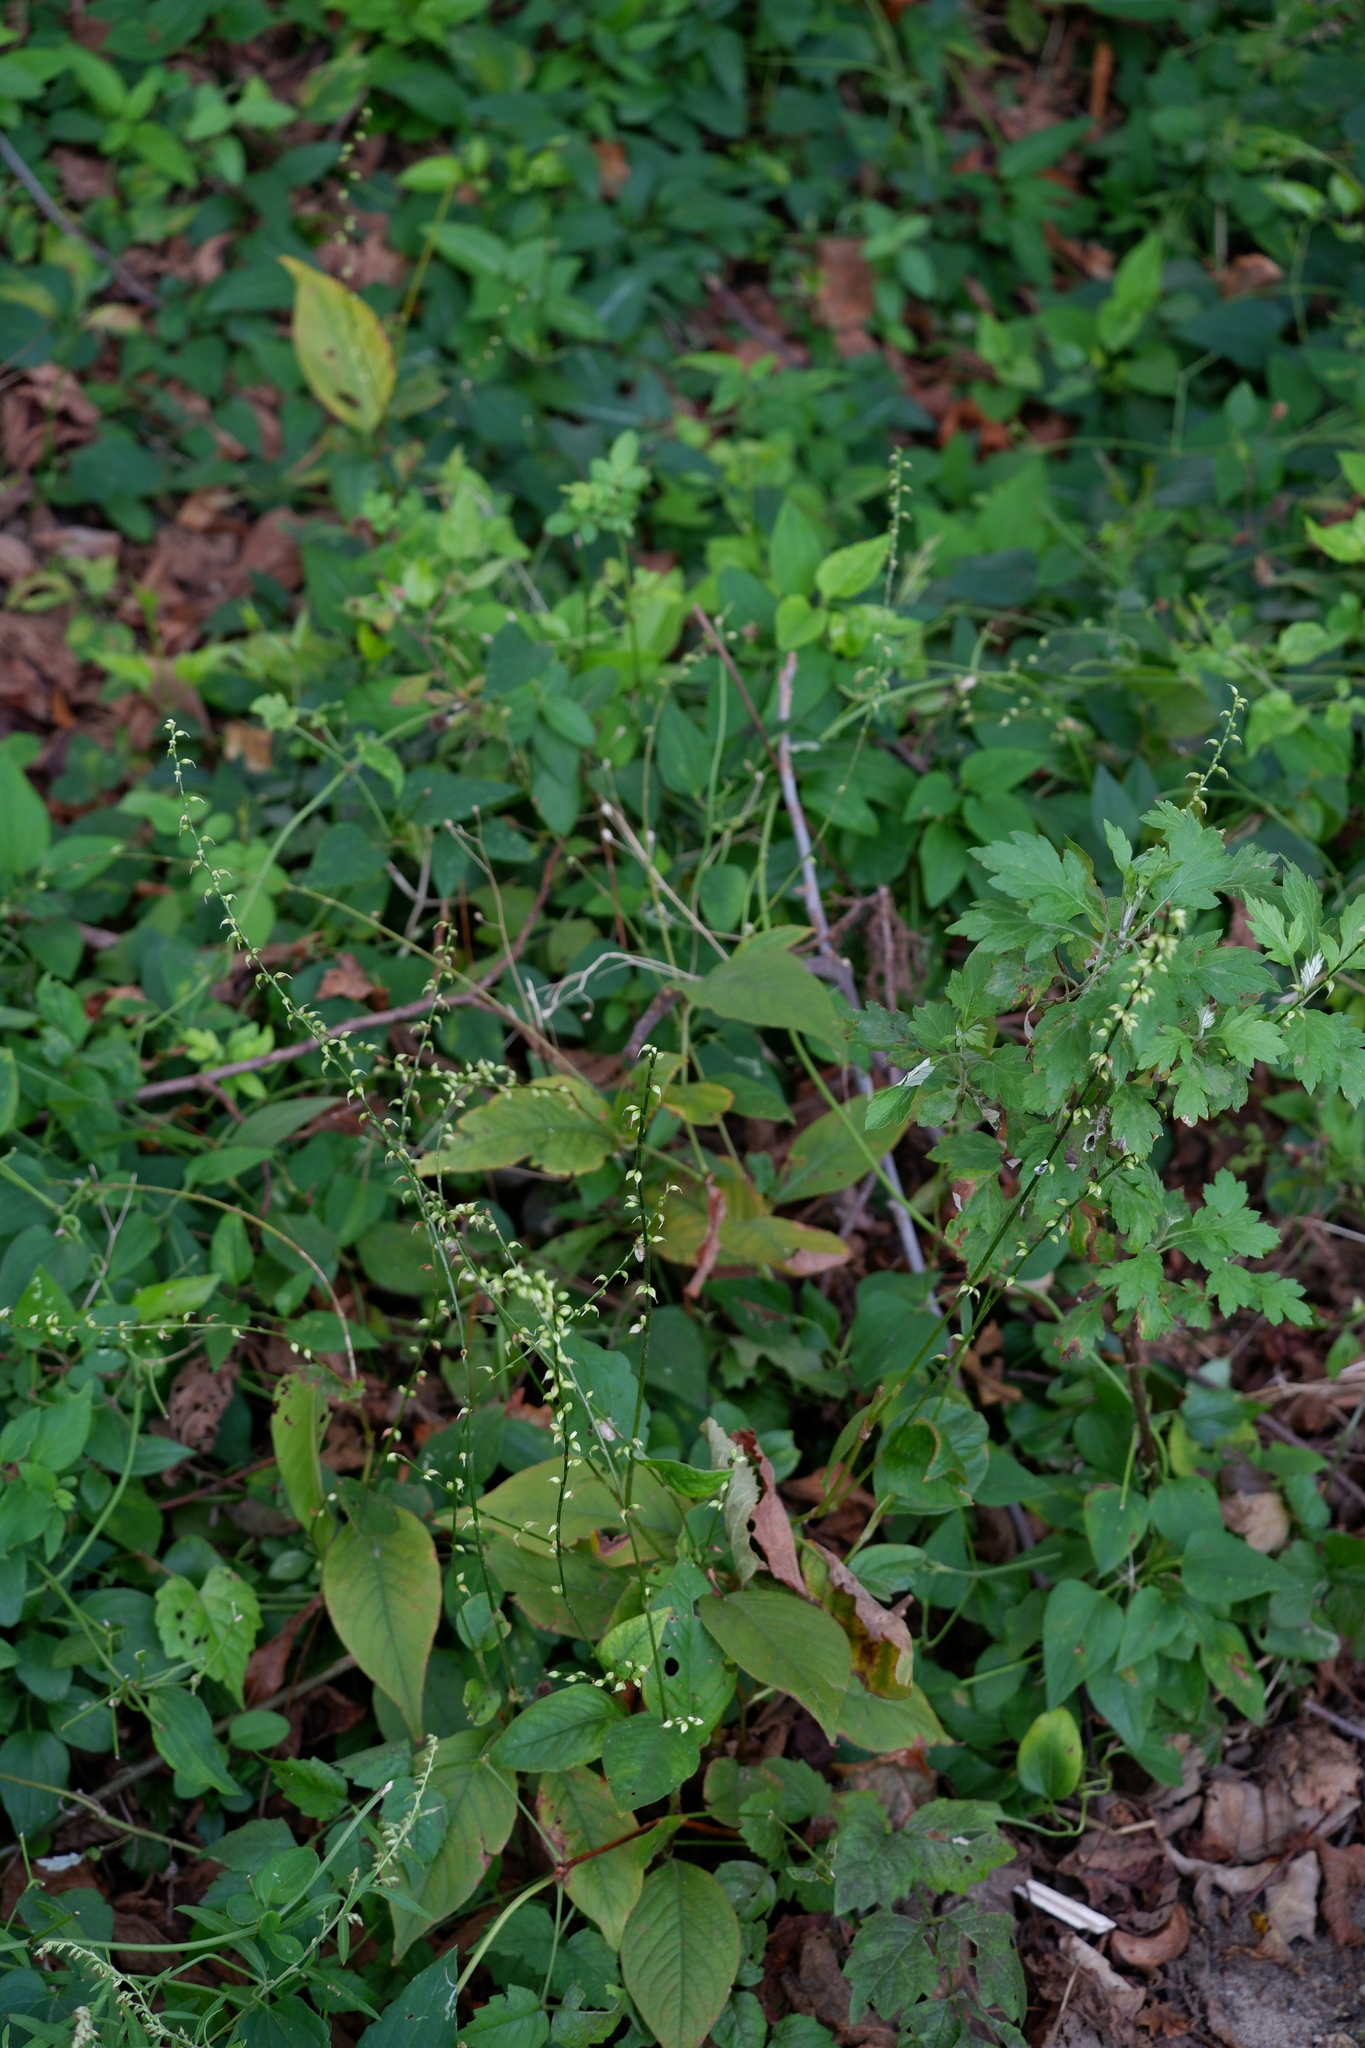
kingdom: Plantae
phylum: Tracheophyta
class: Magnoliopsida
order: Caryophyllales
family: Polygonaceae
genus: Persicaria
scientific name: Persicaria virginiana
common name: Jumpseed
